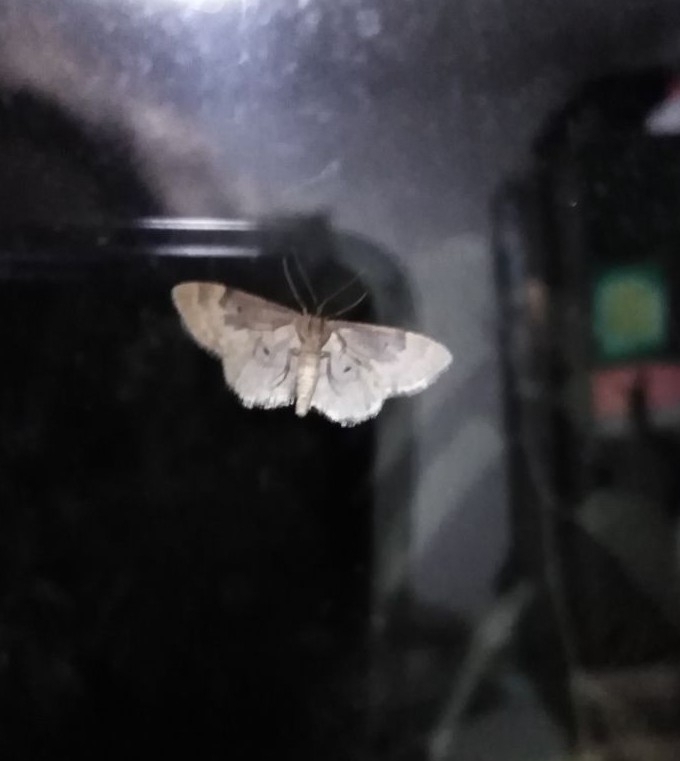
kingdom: Animalia
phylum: Arthropoda
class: Insecta
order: Lepidoptera
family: Geometridae
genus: Idaea
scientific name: Idaea rusticata
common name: Least carpet
